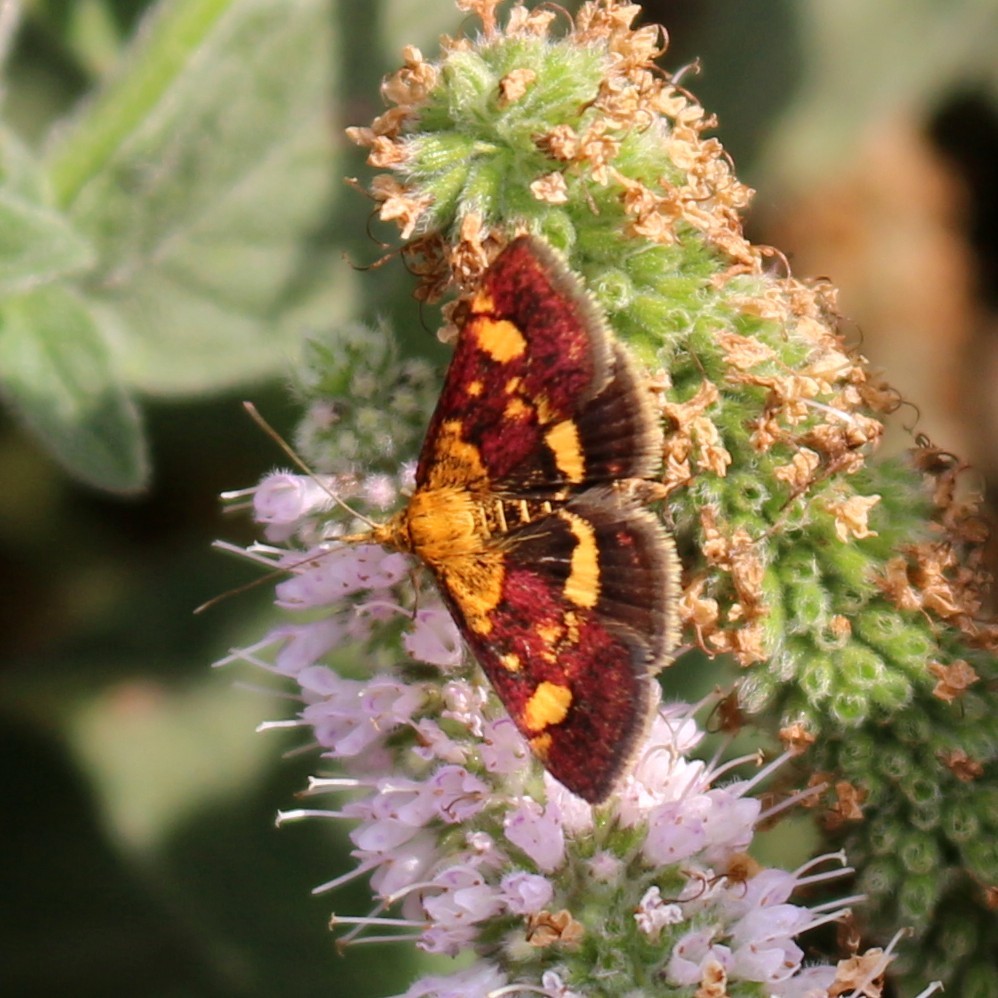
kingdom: Animalia
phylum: Arthropoda
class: Insecta
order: Lepidoptera
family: Crambidae
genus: Pyrausta
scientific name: Pyrausta aurata
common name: Small purple & gold
